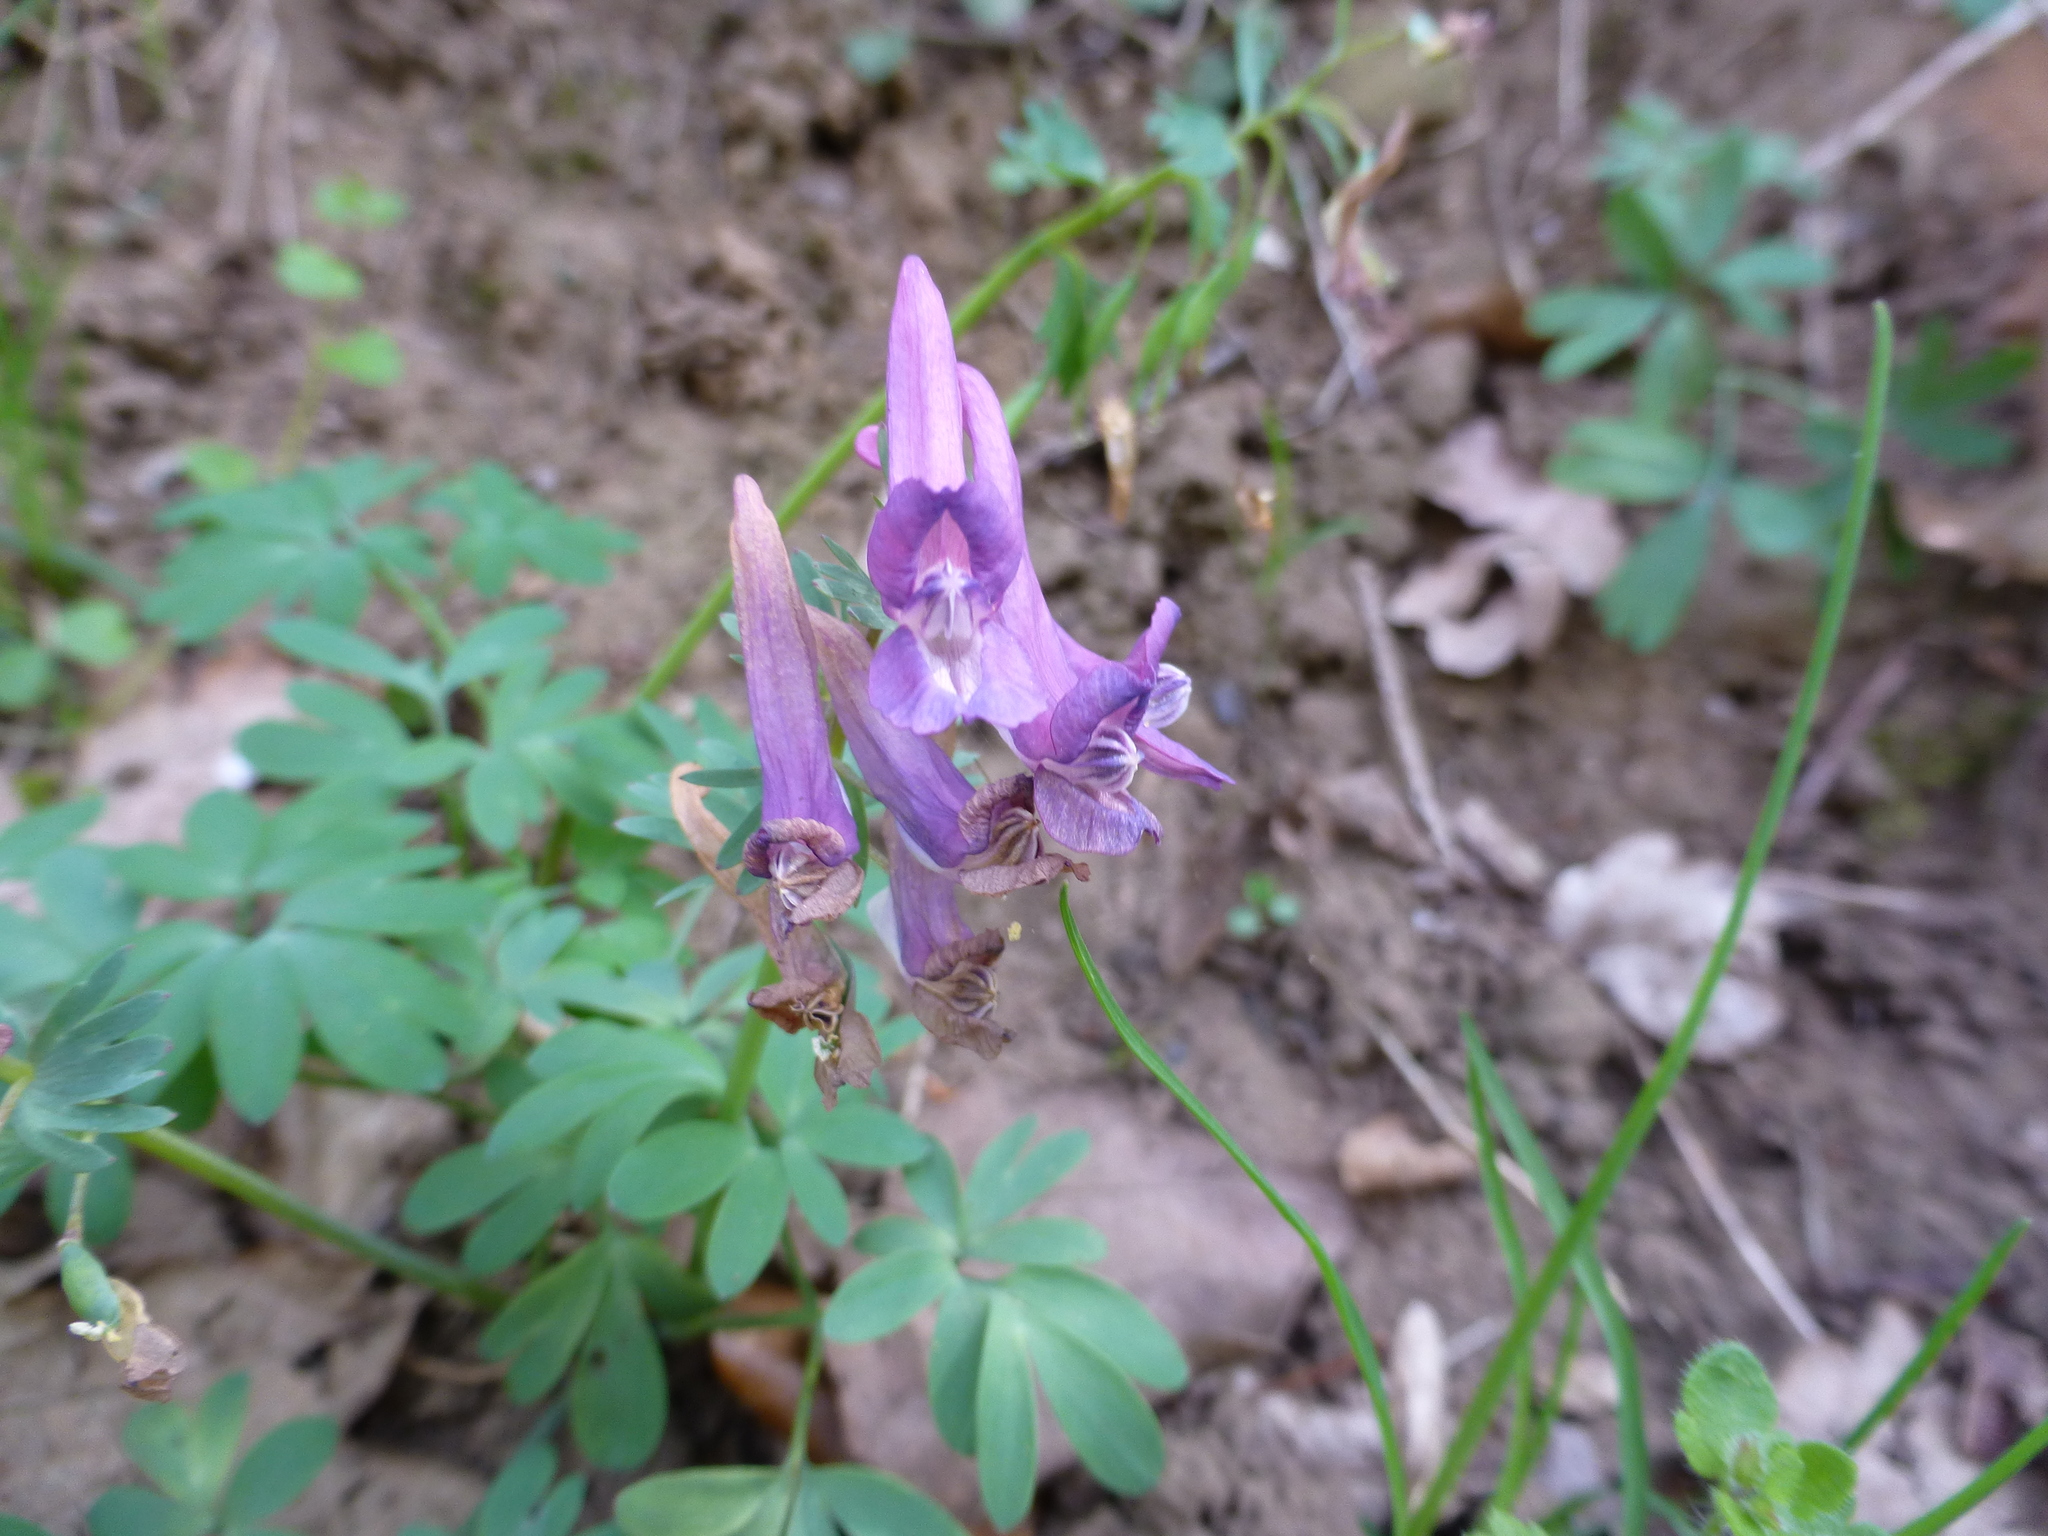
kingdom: Plantae
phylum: Tracheophyta
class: Magnoliopsida
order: Ranunculales
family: Papaveraceae
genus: Corydalis
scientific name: Corydalis solida
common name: Bird-in-a-bush
